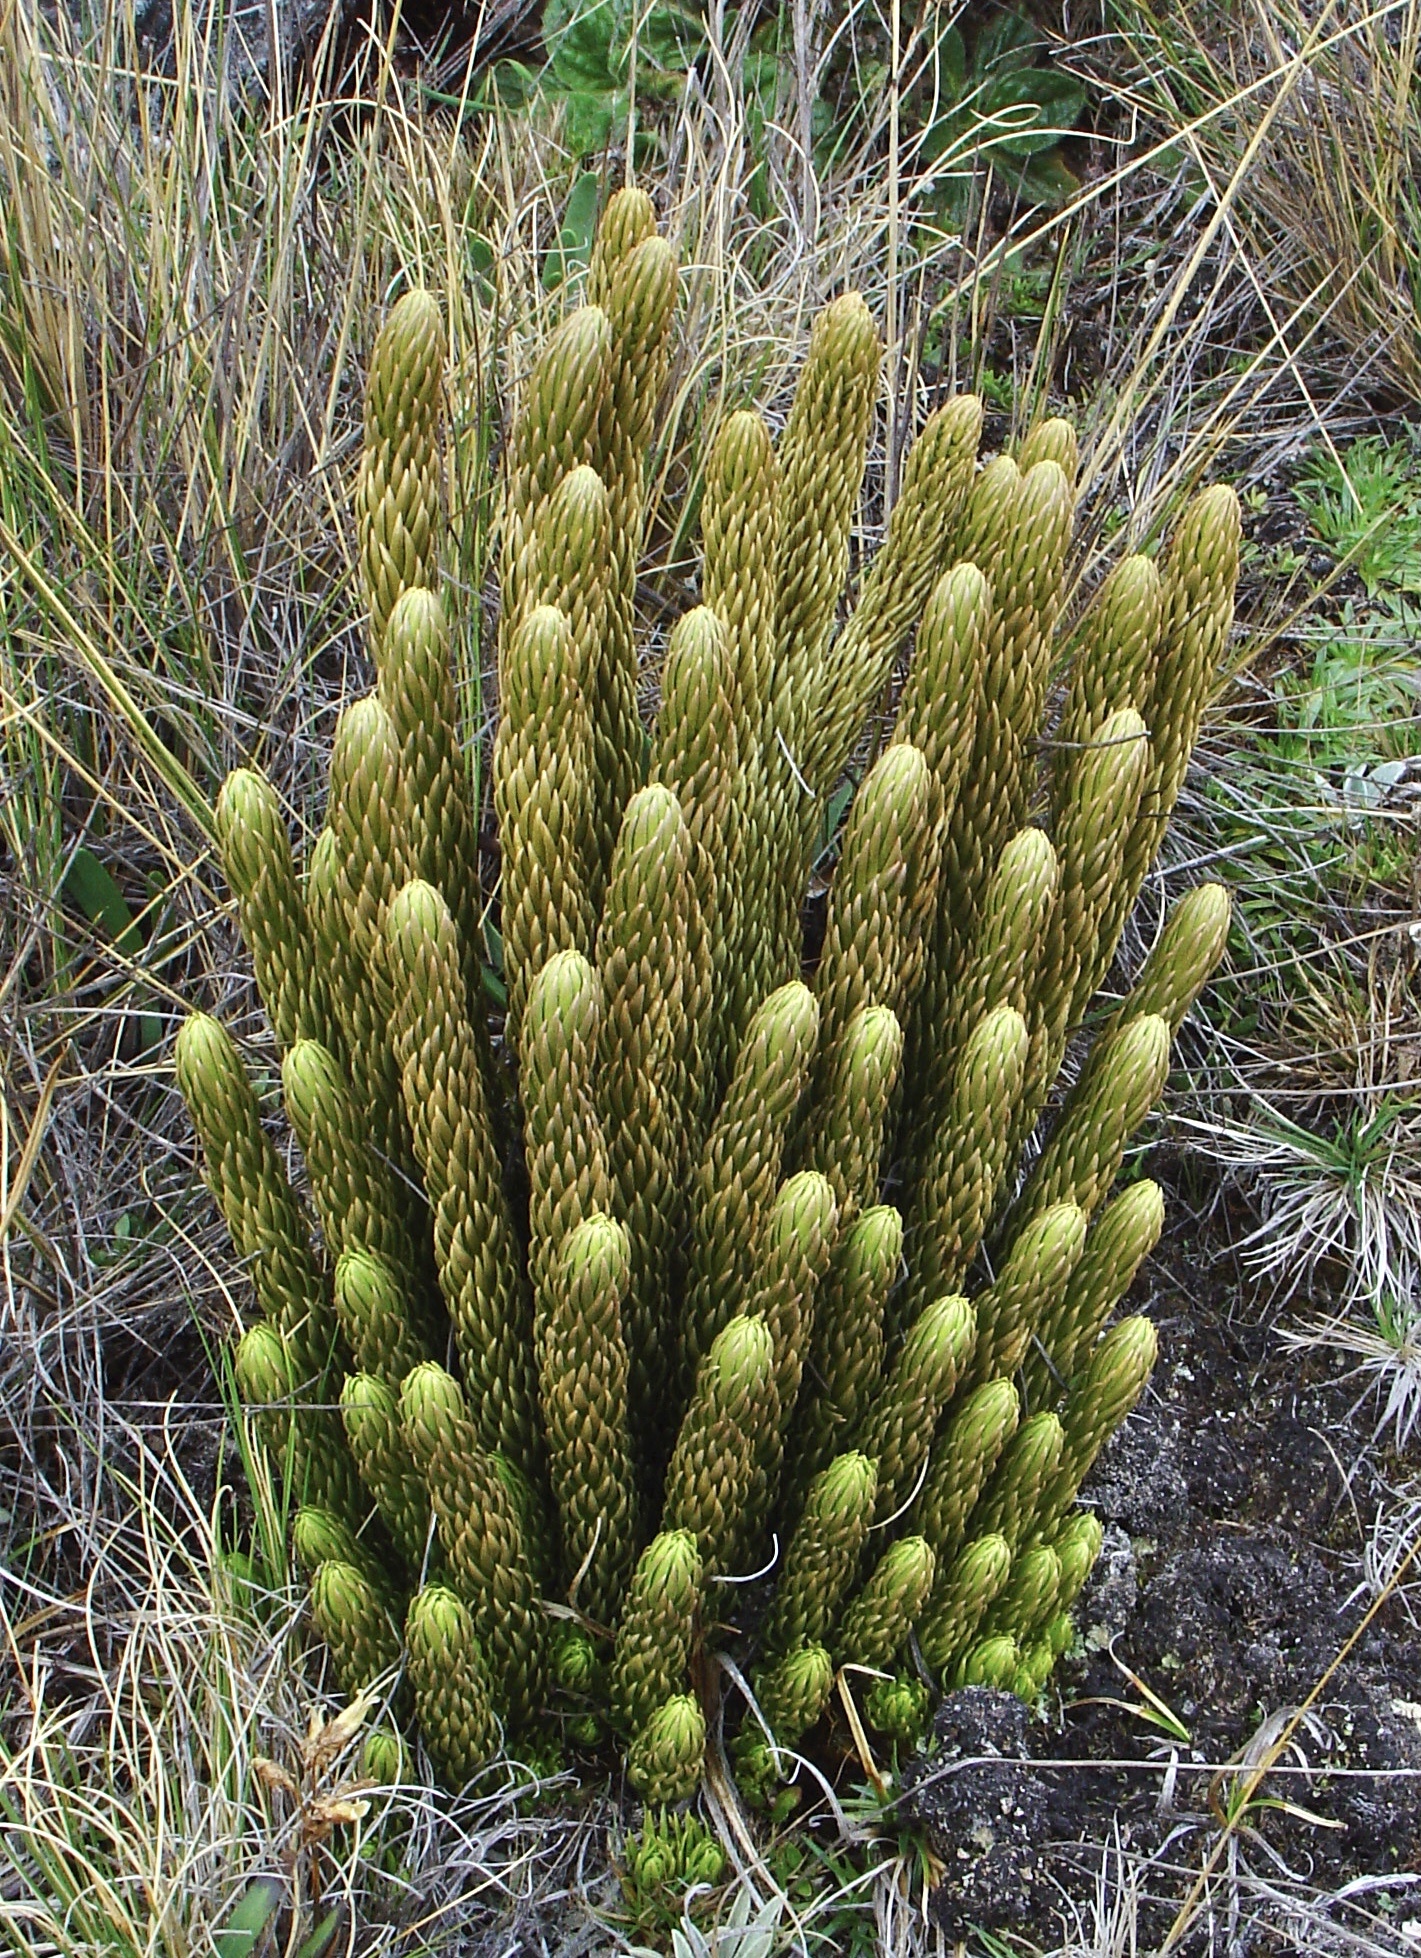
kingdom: Plantae
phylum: Tracheophyta
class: Lycopodiopsida
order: Lycopodiales
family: Lycopodiaceae
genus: Phlegmariurus
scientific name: Phlegmariurus saururus
